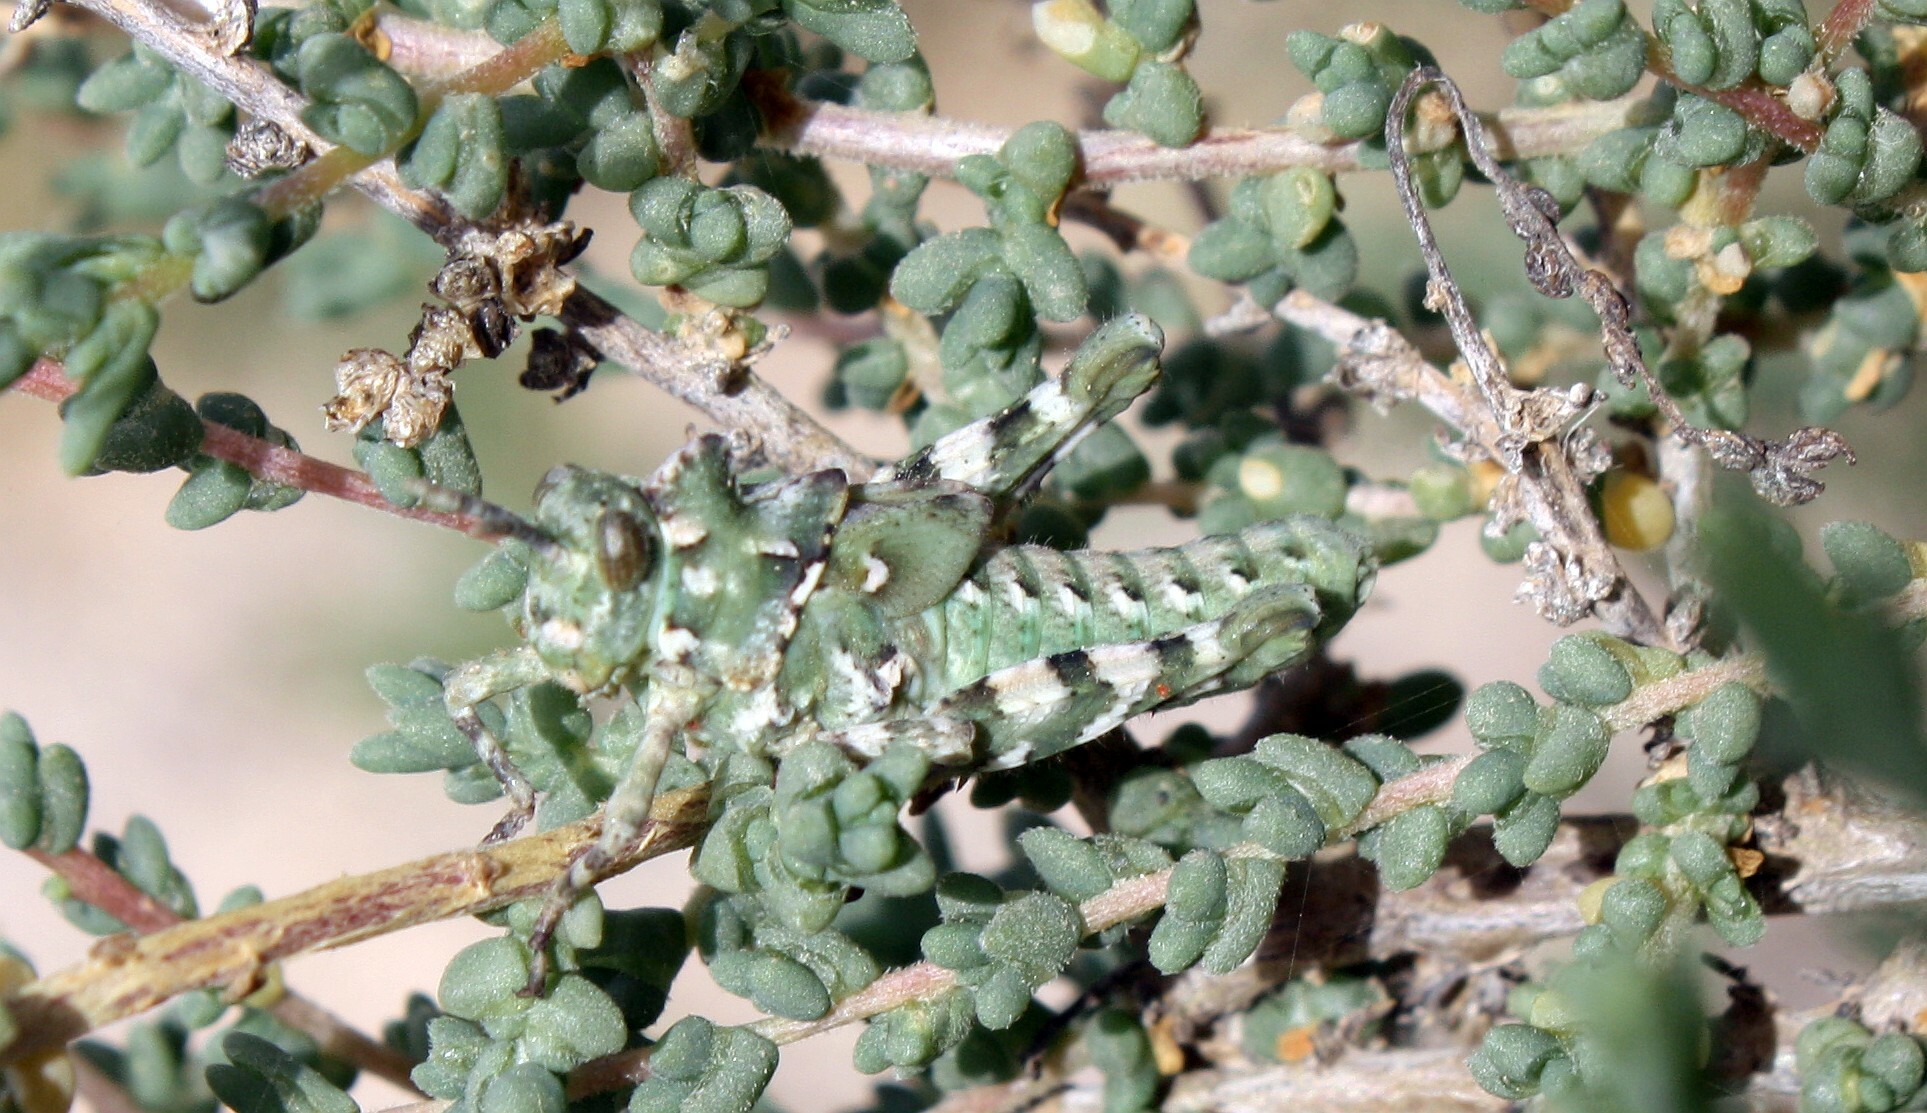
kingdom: Animalia
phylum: Arthropoda
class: Insecta
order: Orthoptera
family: Dericorythidae
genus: Dericorys
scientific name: Dericorys lobata
